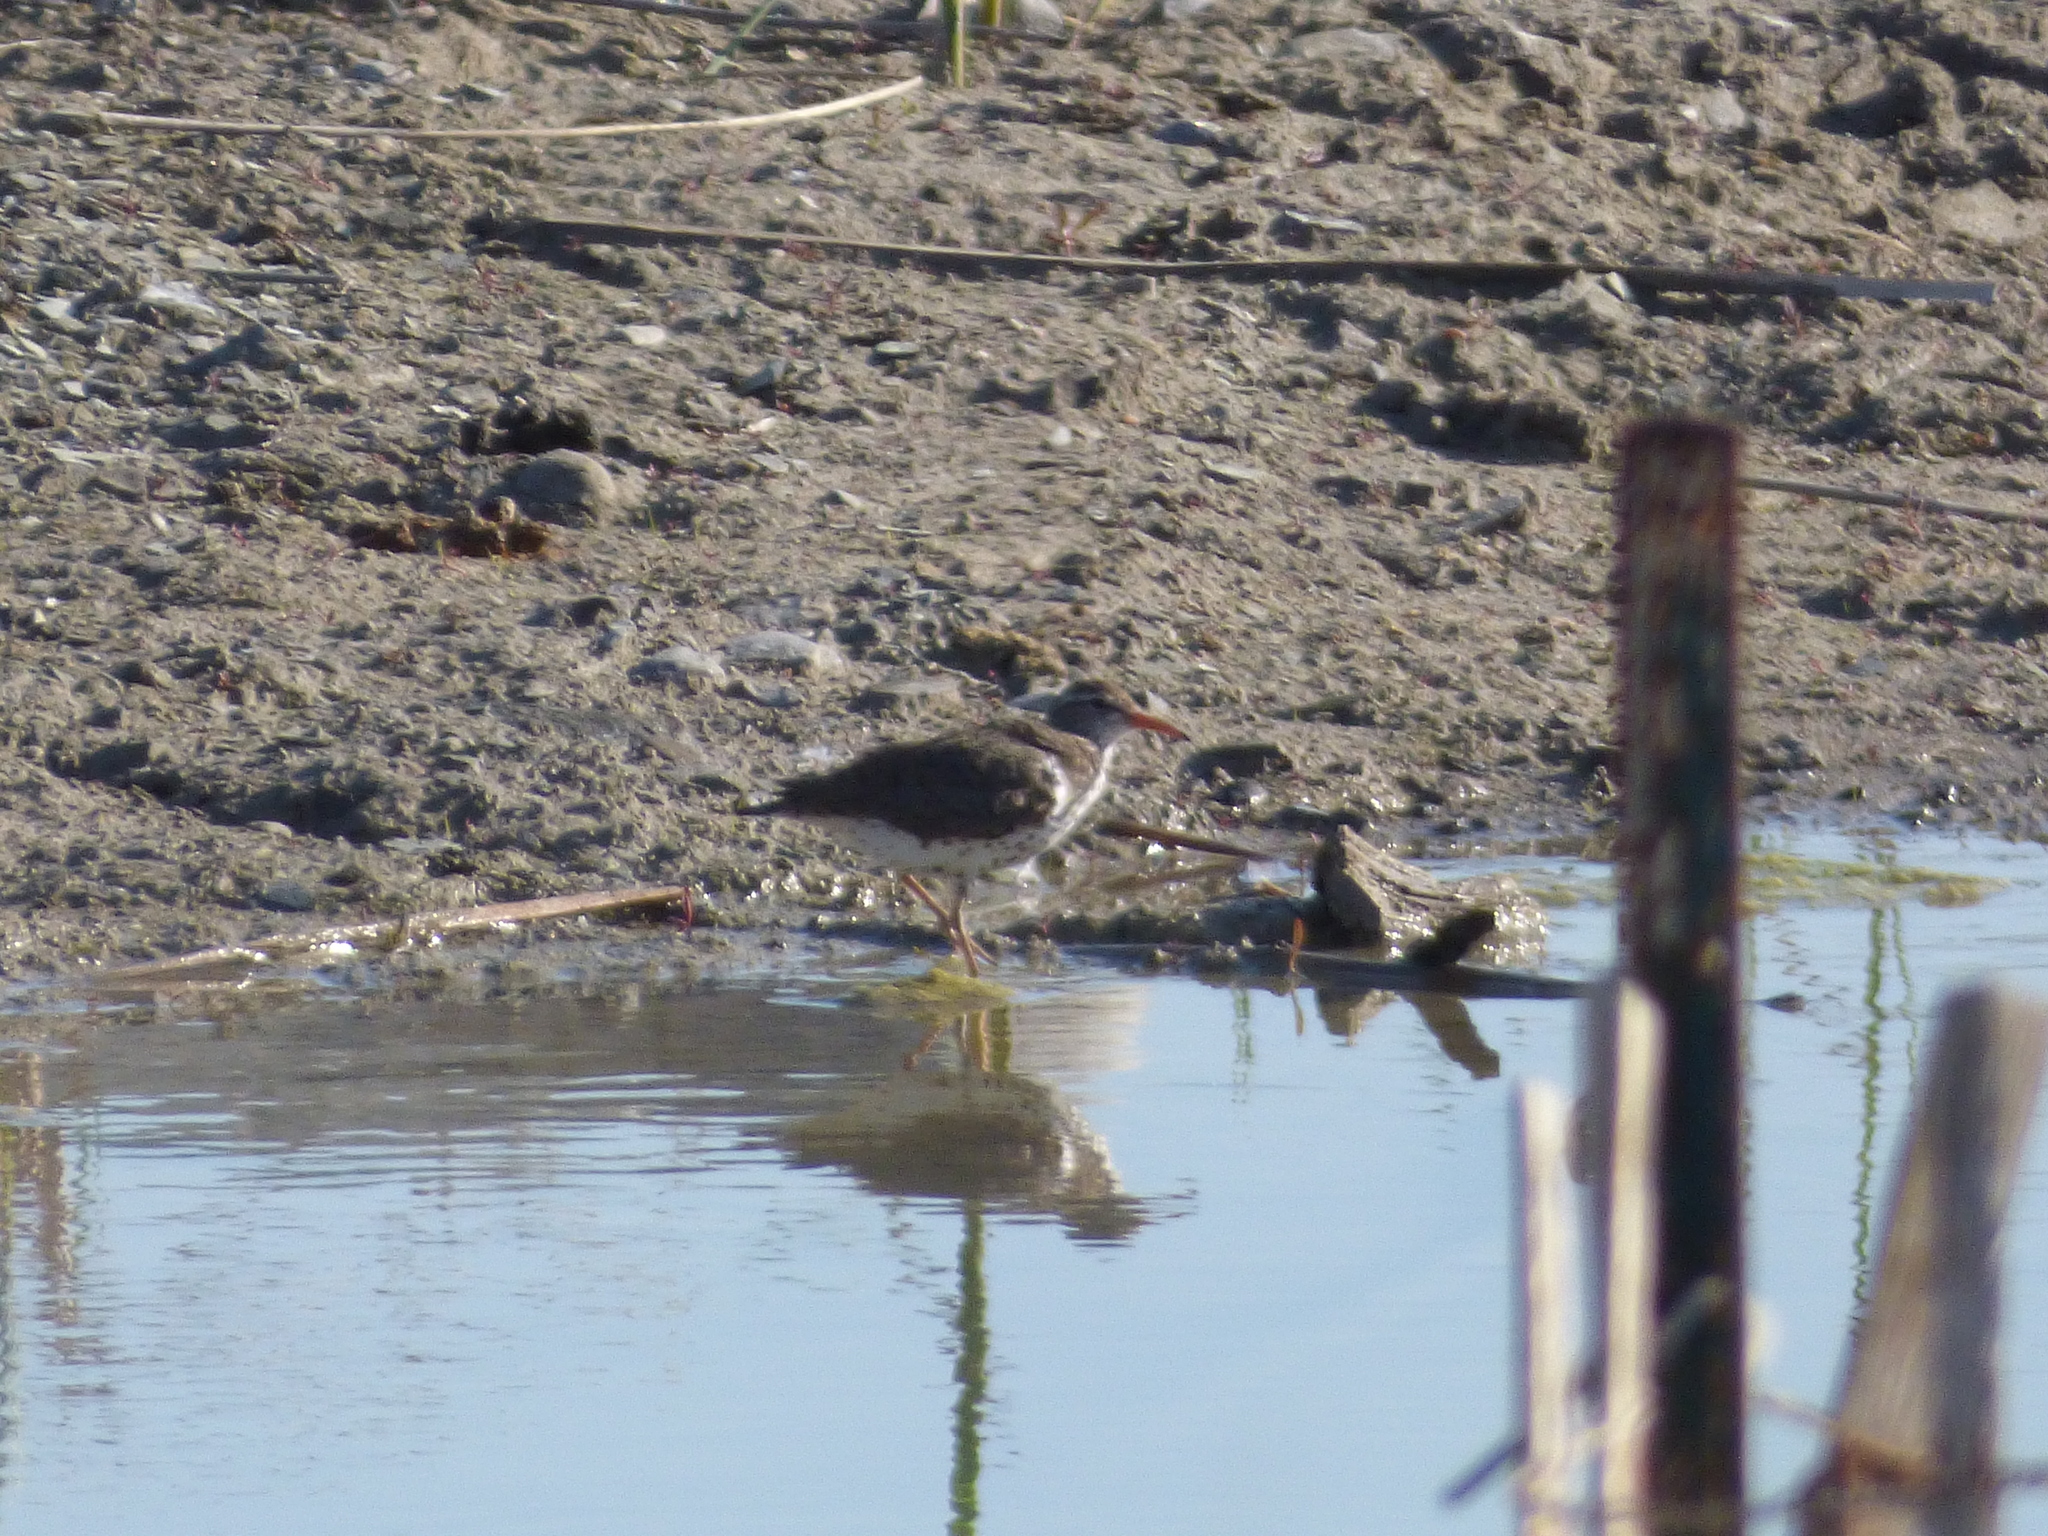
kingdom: Animalia
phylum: Chordata
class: Aves
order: Charadriiformes
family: Scolopacidae
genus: Actitis
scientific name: Actitis macularius
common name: Spotted sandpiper
